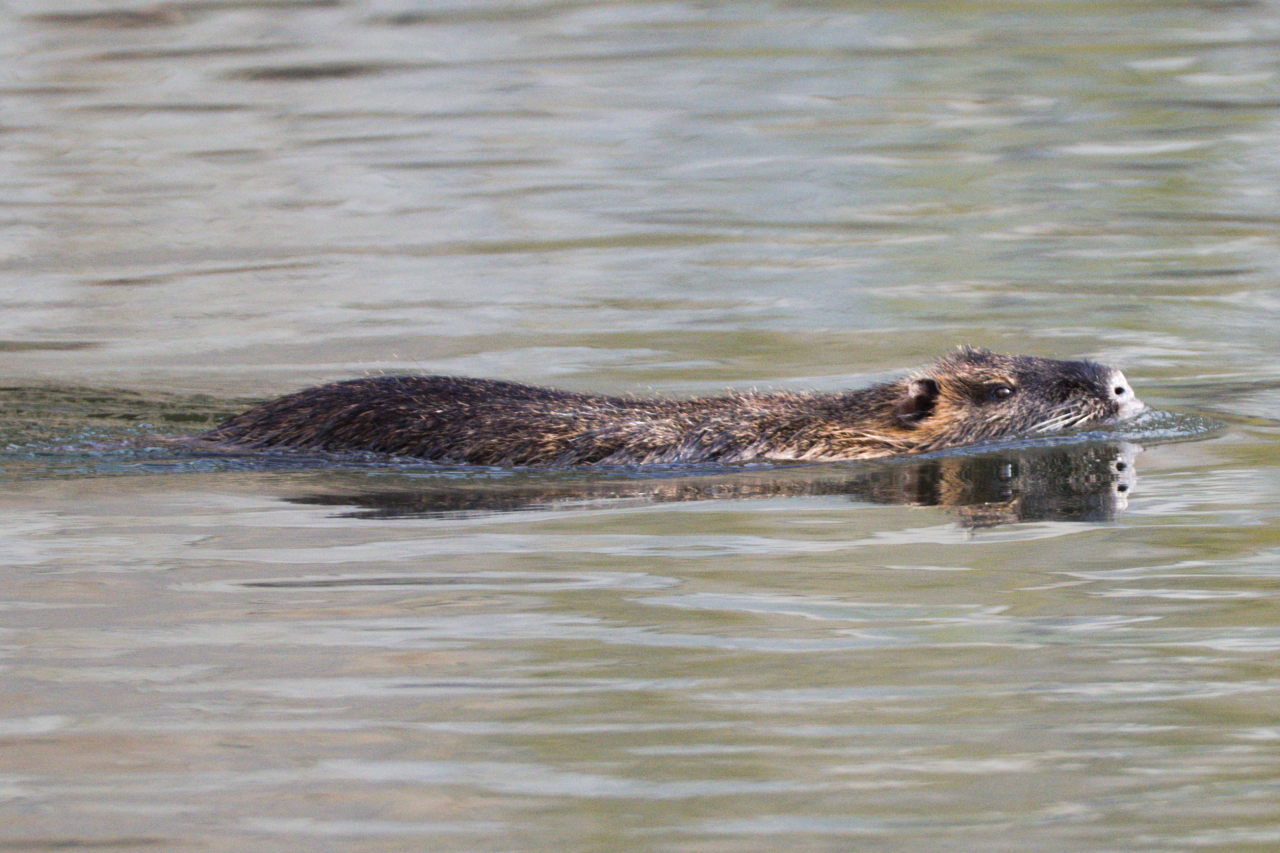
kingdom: Animalia
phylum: Chordata
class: Mammalia
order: Rodentia
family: Myocastoridae
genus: Myocastor
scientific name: Myocastor coypus
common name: Coypu
